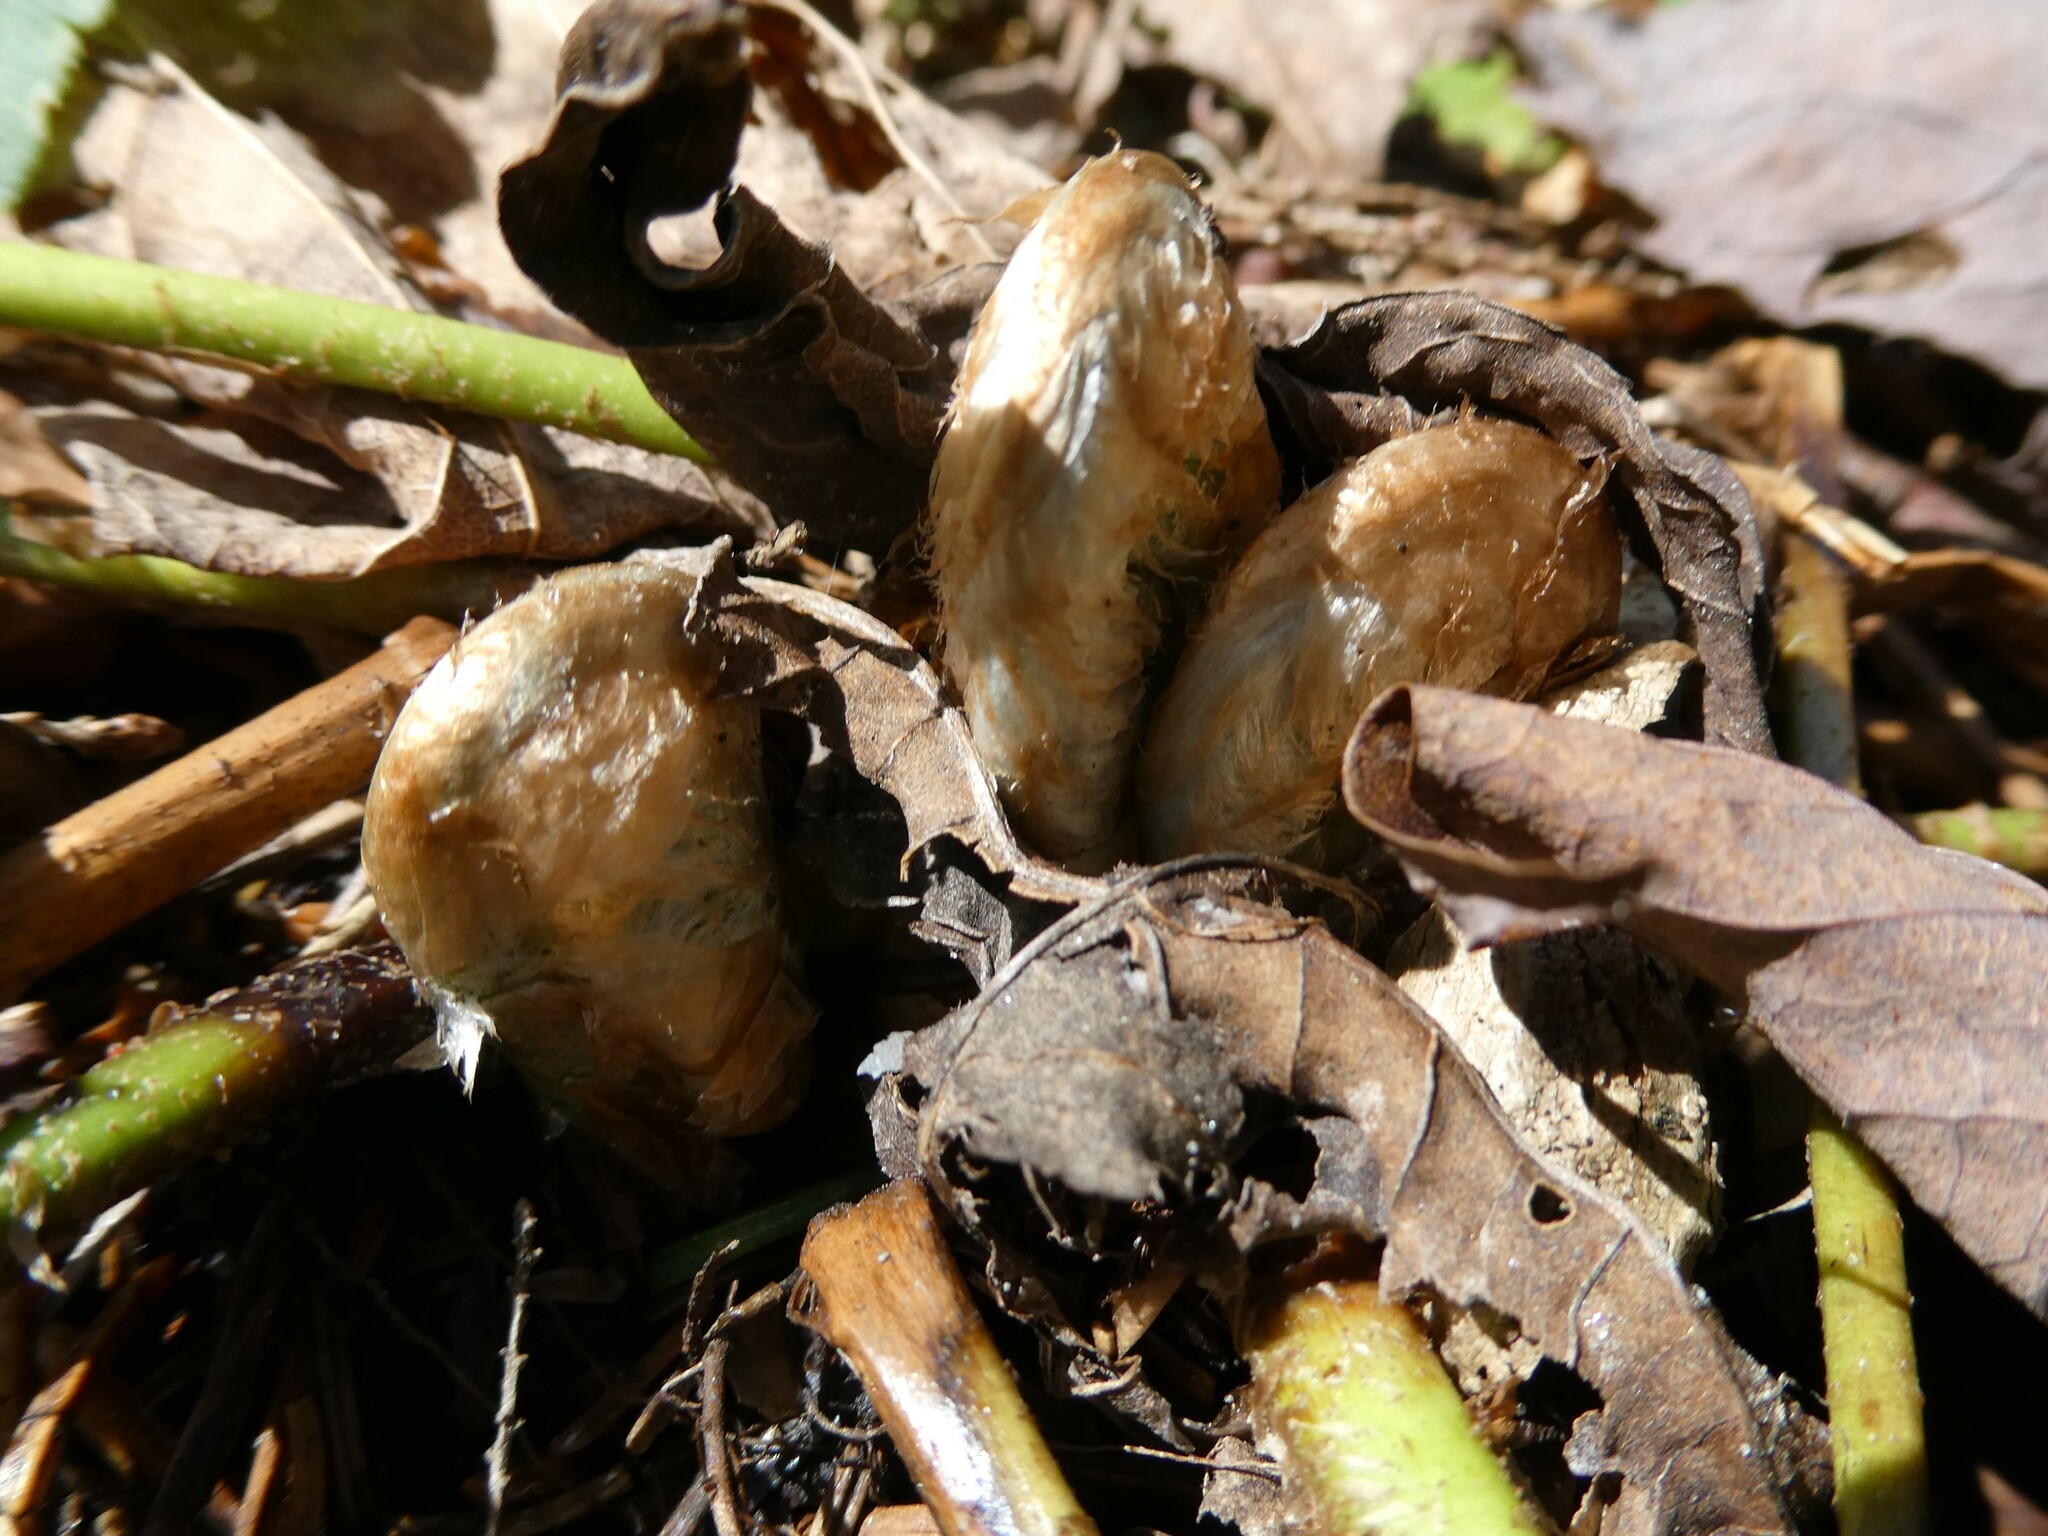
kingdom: Plantae
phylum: Tracheophyta
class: Polypodiopsida
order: Polypodiales
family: Dryopteridaceae
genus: Polystichum
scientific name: Polystichum acrostichoides
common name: Christmas fern
